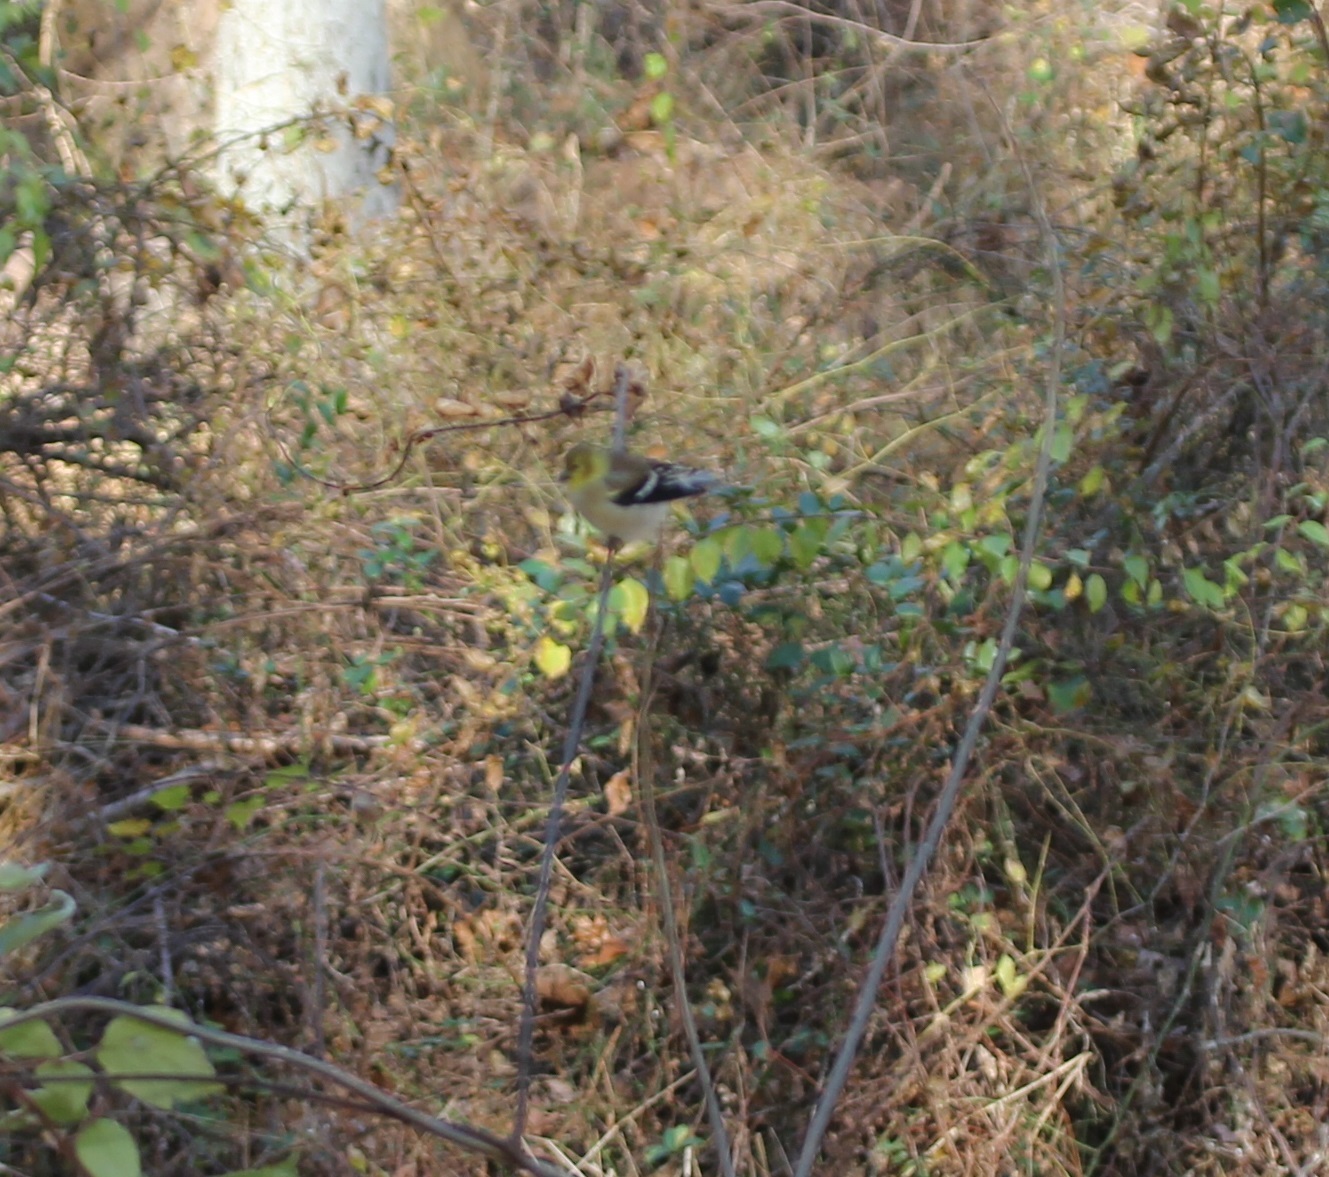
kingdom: Animalia
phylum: Chordata
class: Aves
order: Passeriformes
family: Fringillidae
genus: Spinus
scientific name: Spinus tristis
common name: American goldfinch
